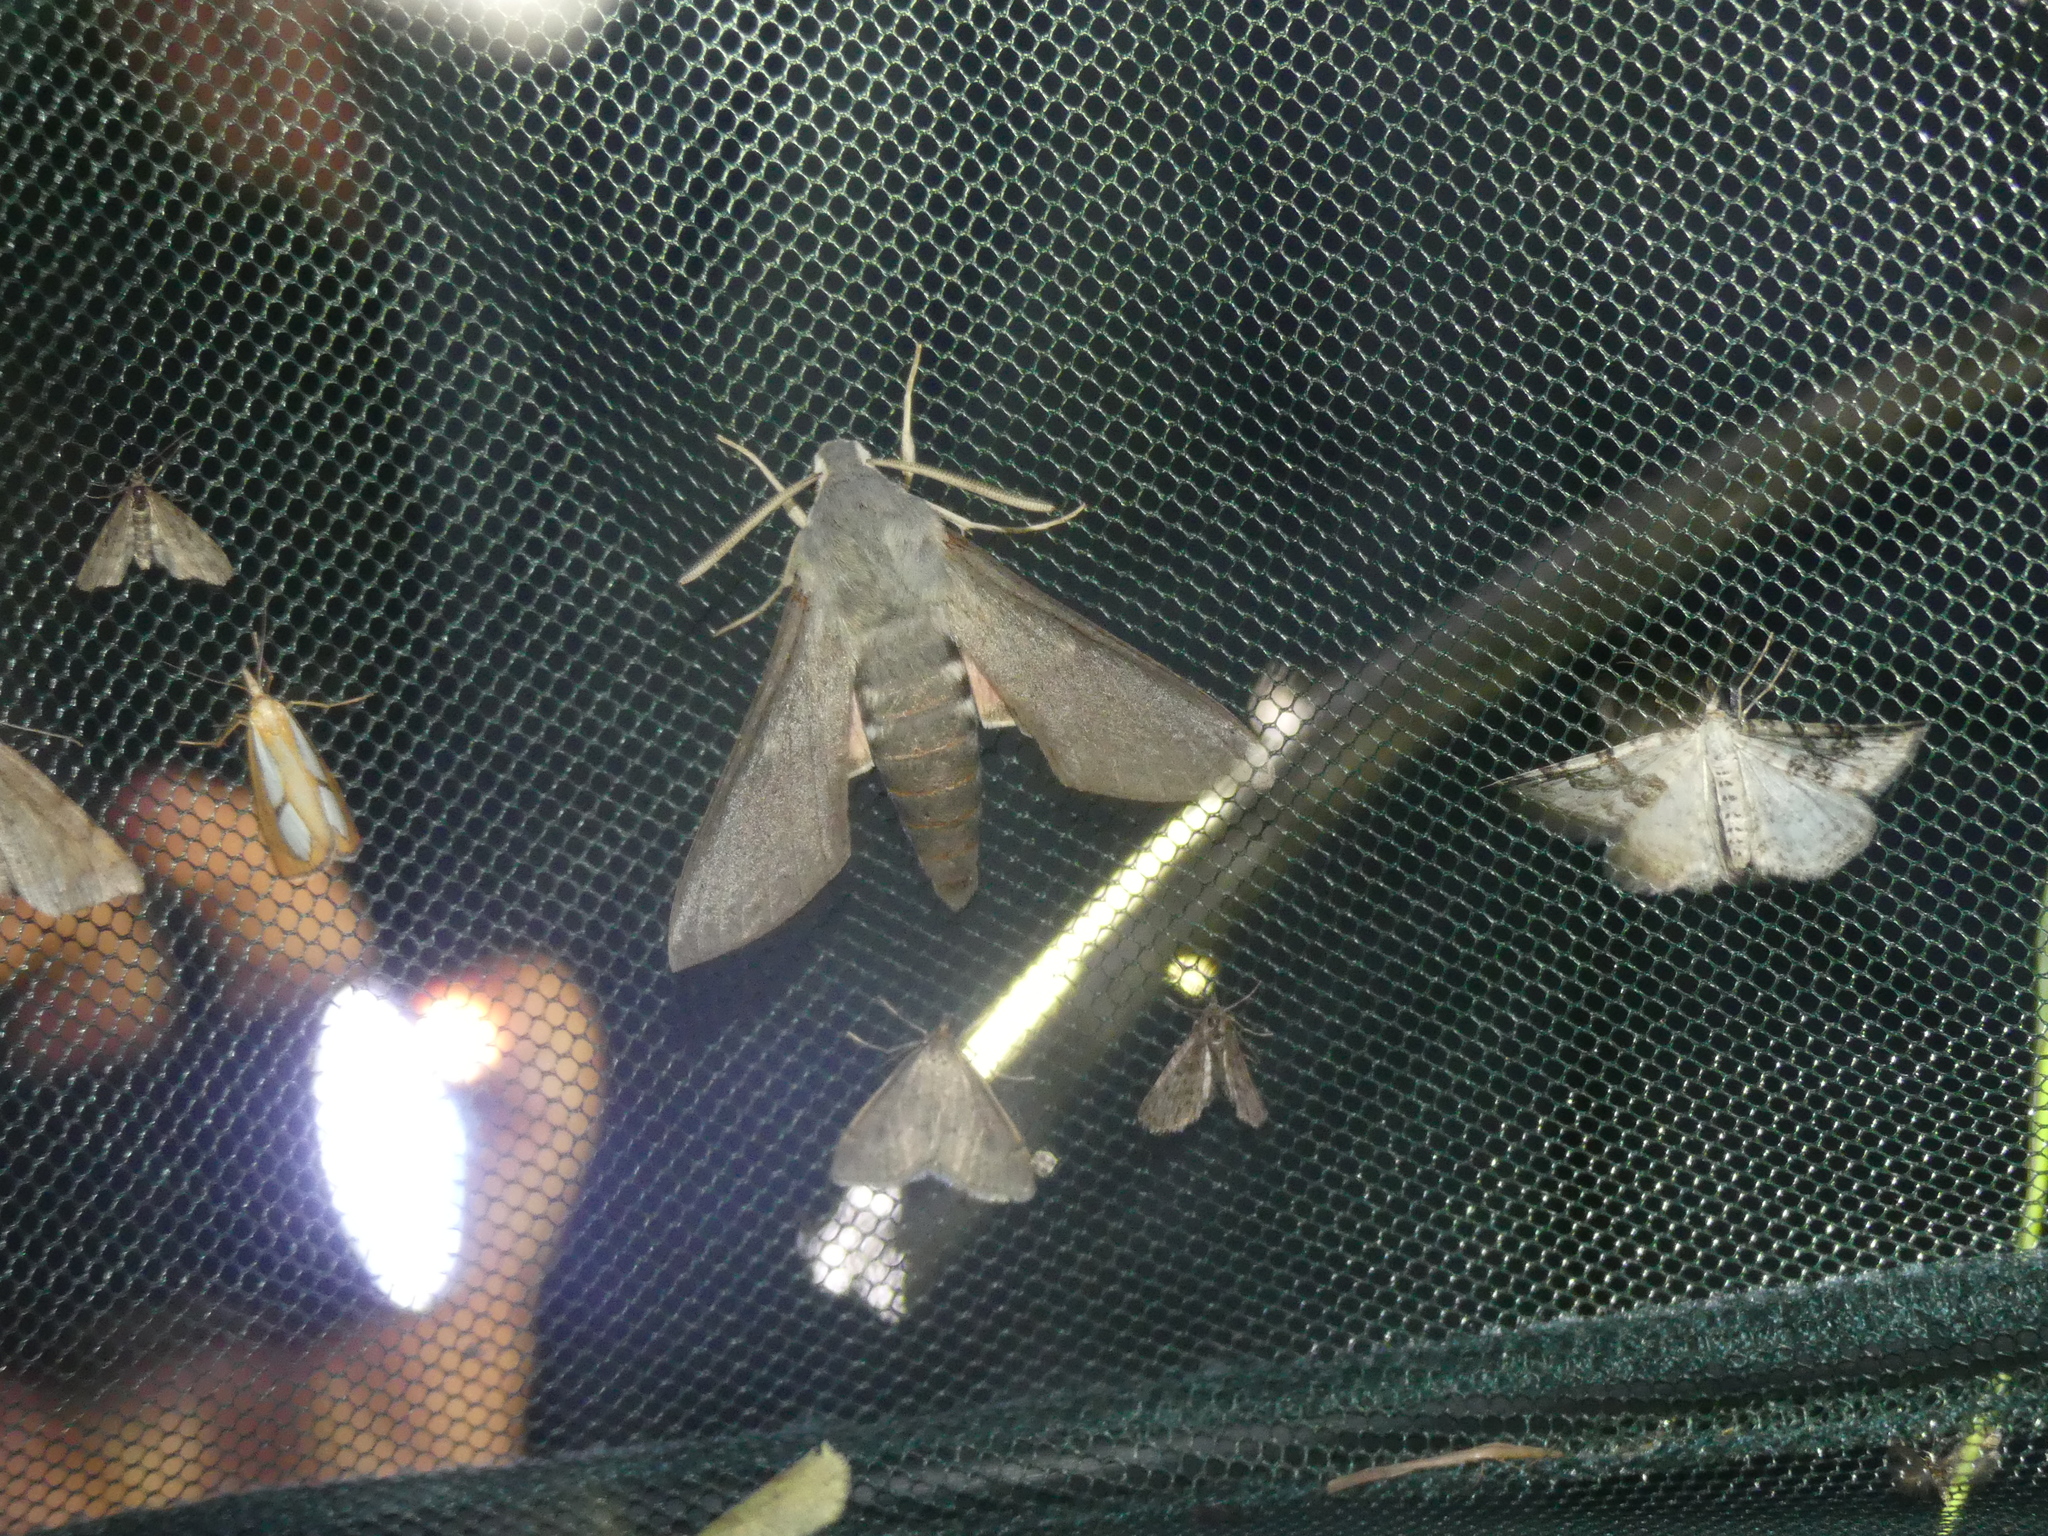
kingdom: Animalia
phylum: Arthropoda
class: Insecta
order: Lepidoptera
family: Sphingidae
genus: Hyles
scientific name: Hyles vespertilio
